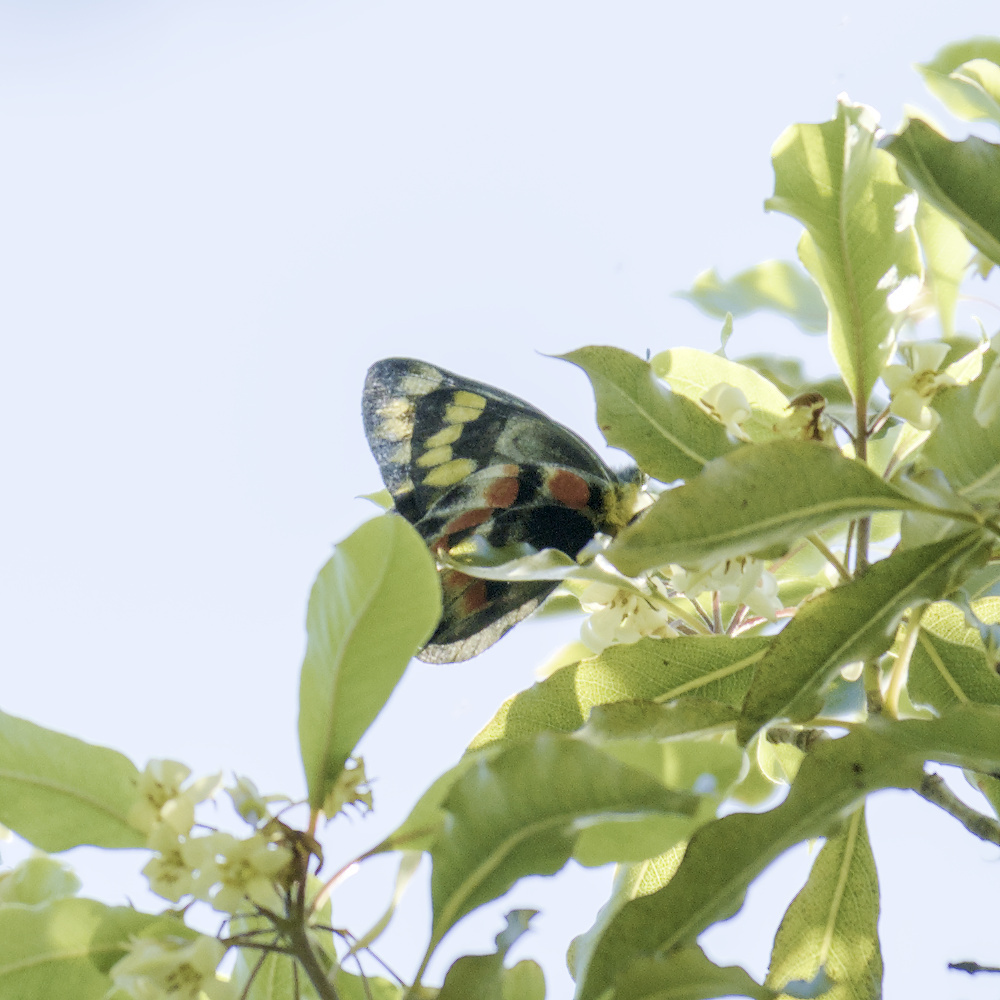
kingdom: Animalia
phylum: Arthropoda
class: Insecta
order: Lepidoptera
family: Pieridae
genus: Delias
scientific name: Delias harpalyce
